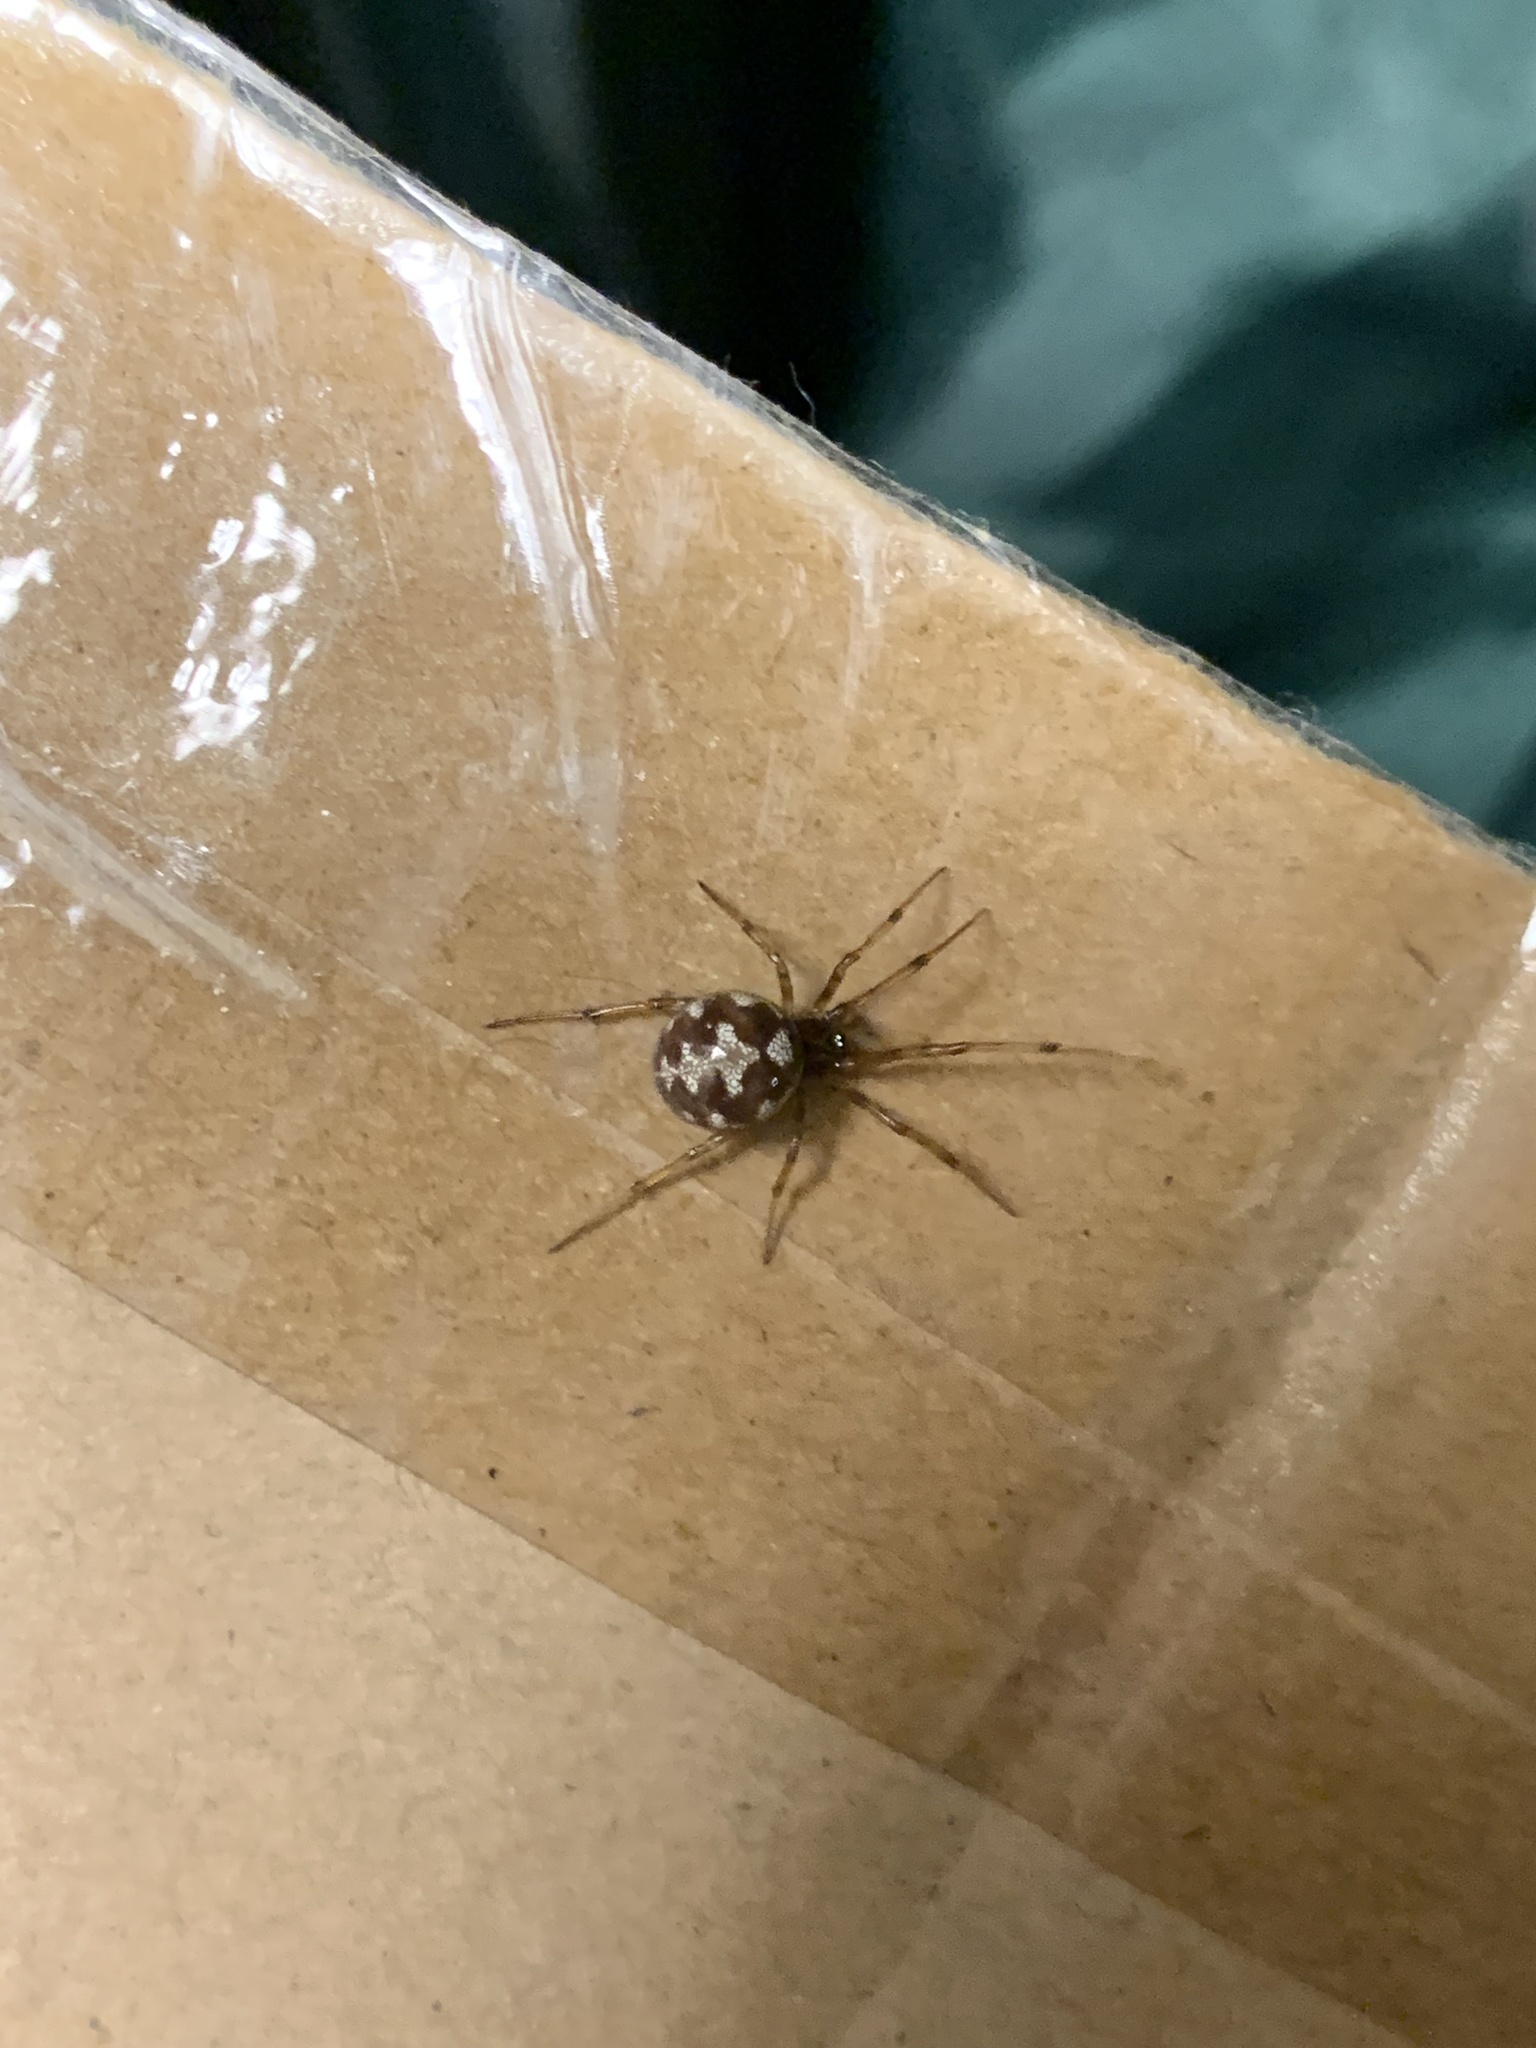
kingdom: Animalia
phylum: Arthropoda
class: Arachnida
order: Araneae
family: Theridiidae
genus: Steatoda
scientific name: Steatoda triangulosa
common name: Triangulate bud spider
